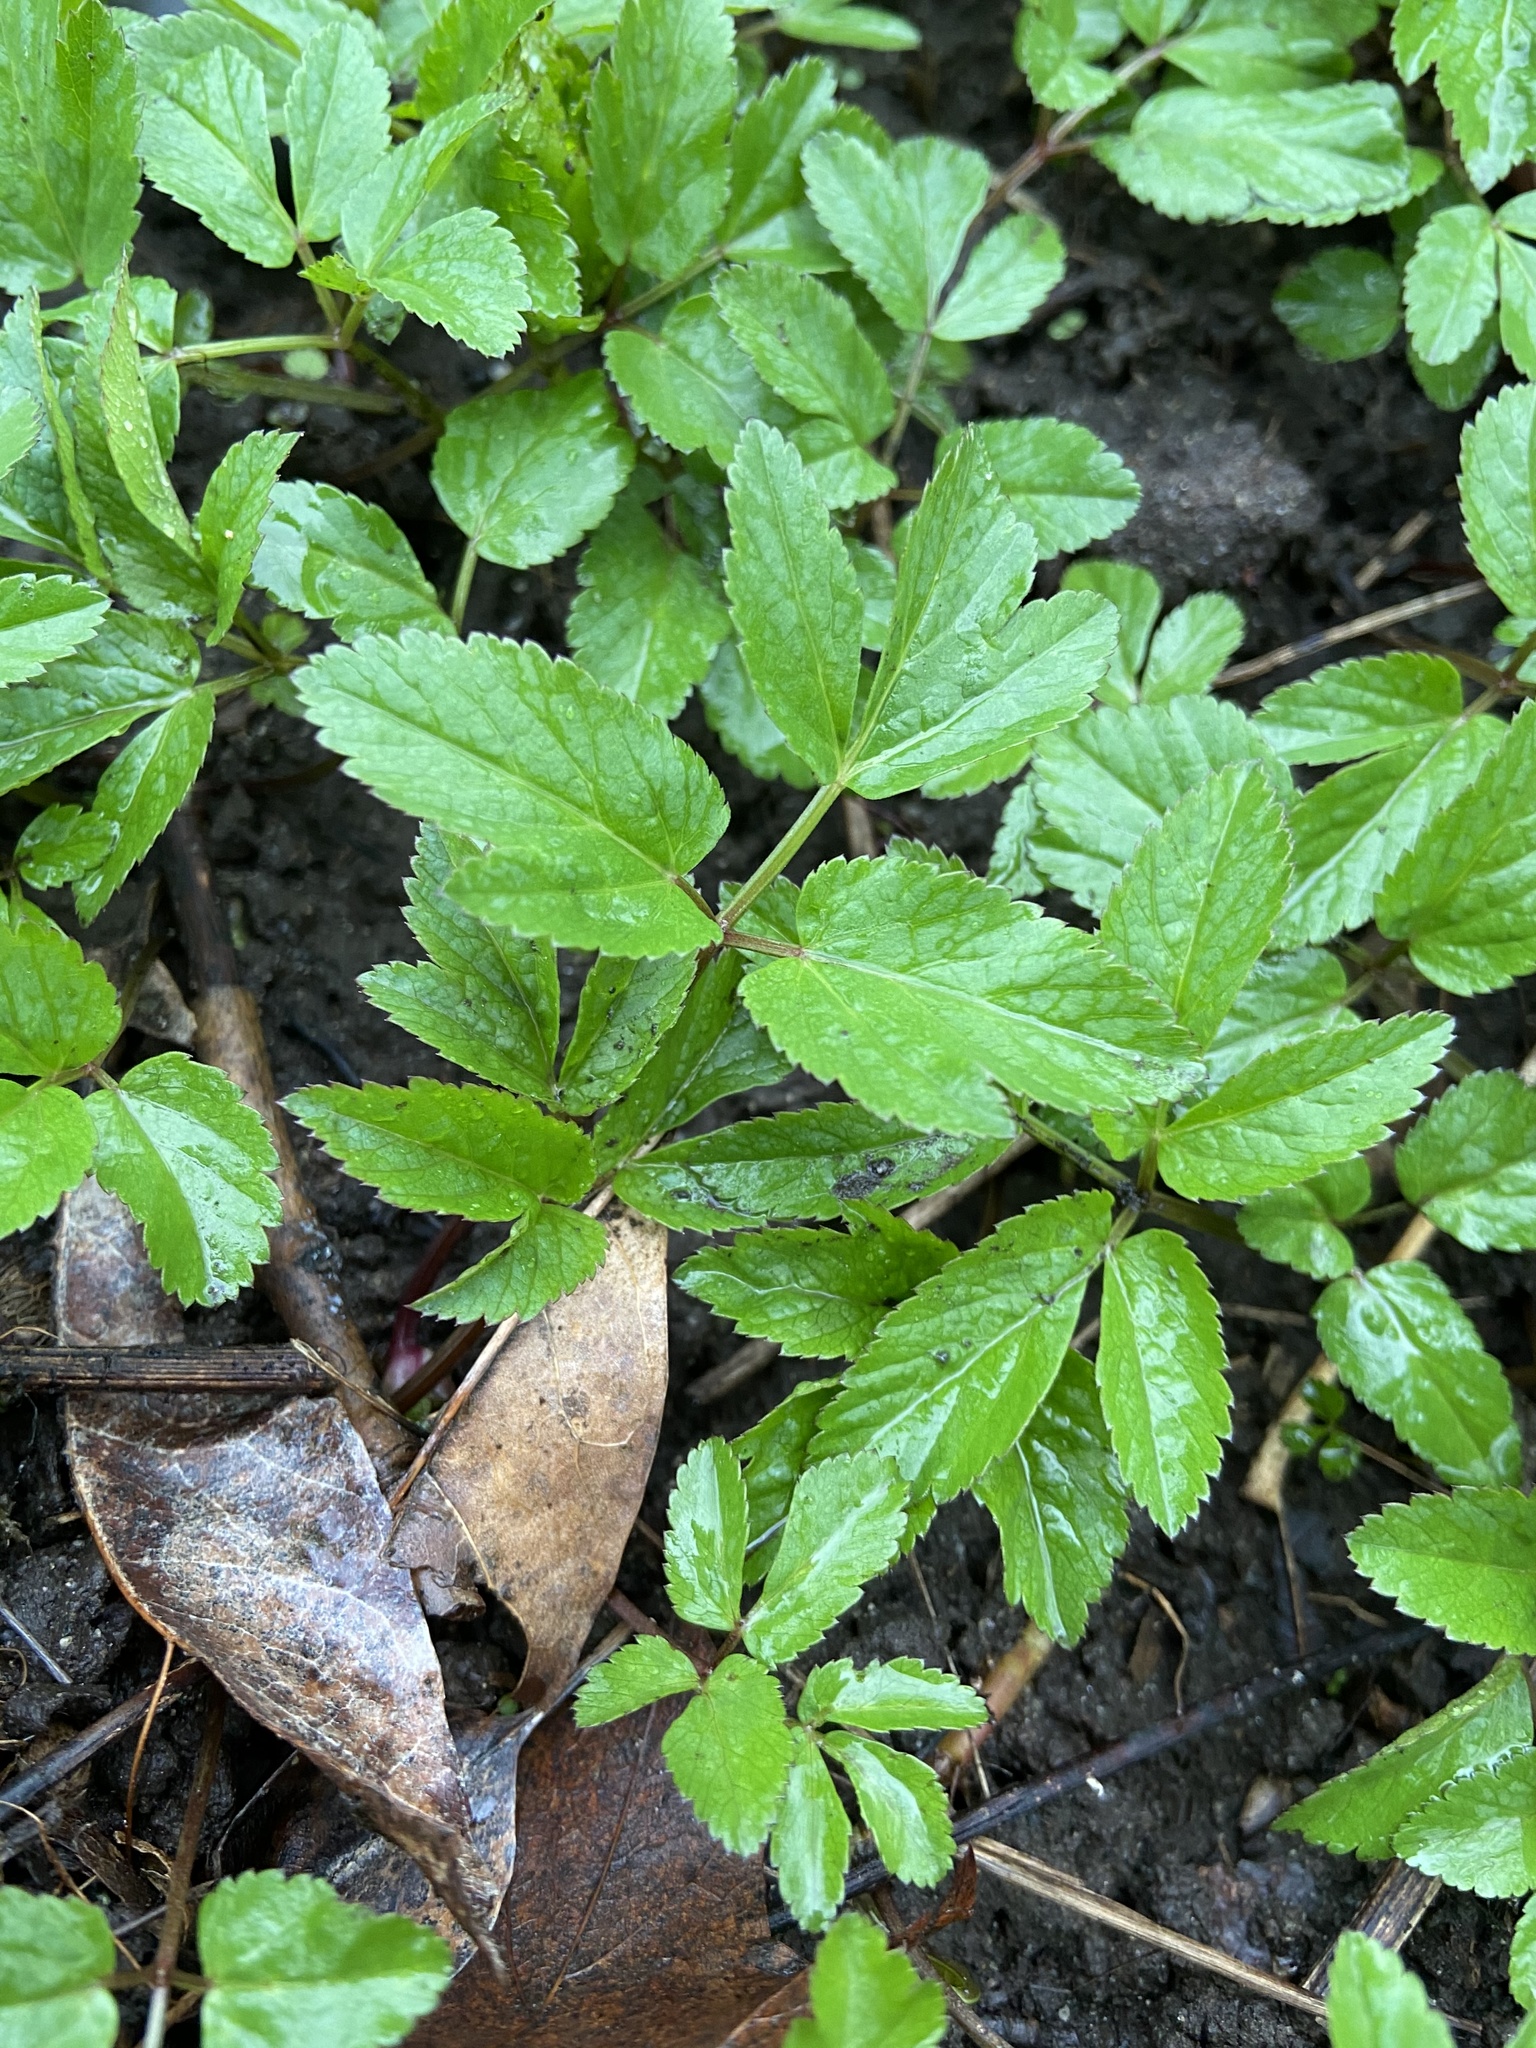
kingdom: Plantae
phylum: Tracheophyta
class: Magnoliopsida
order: Apiales
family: Apiaceae
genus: Aegopodium
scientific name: Aegopodium podagraria
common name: Ground-elder
